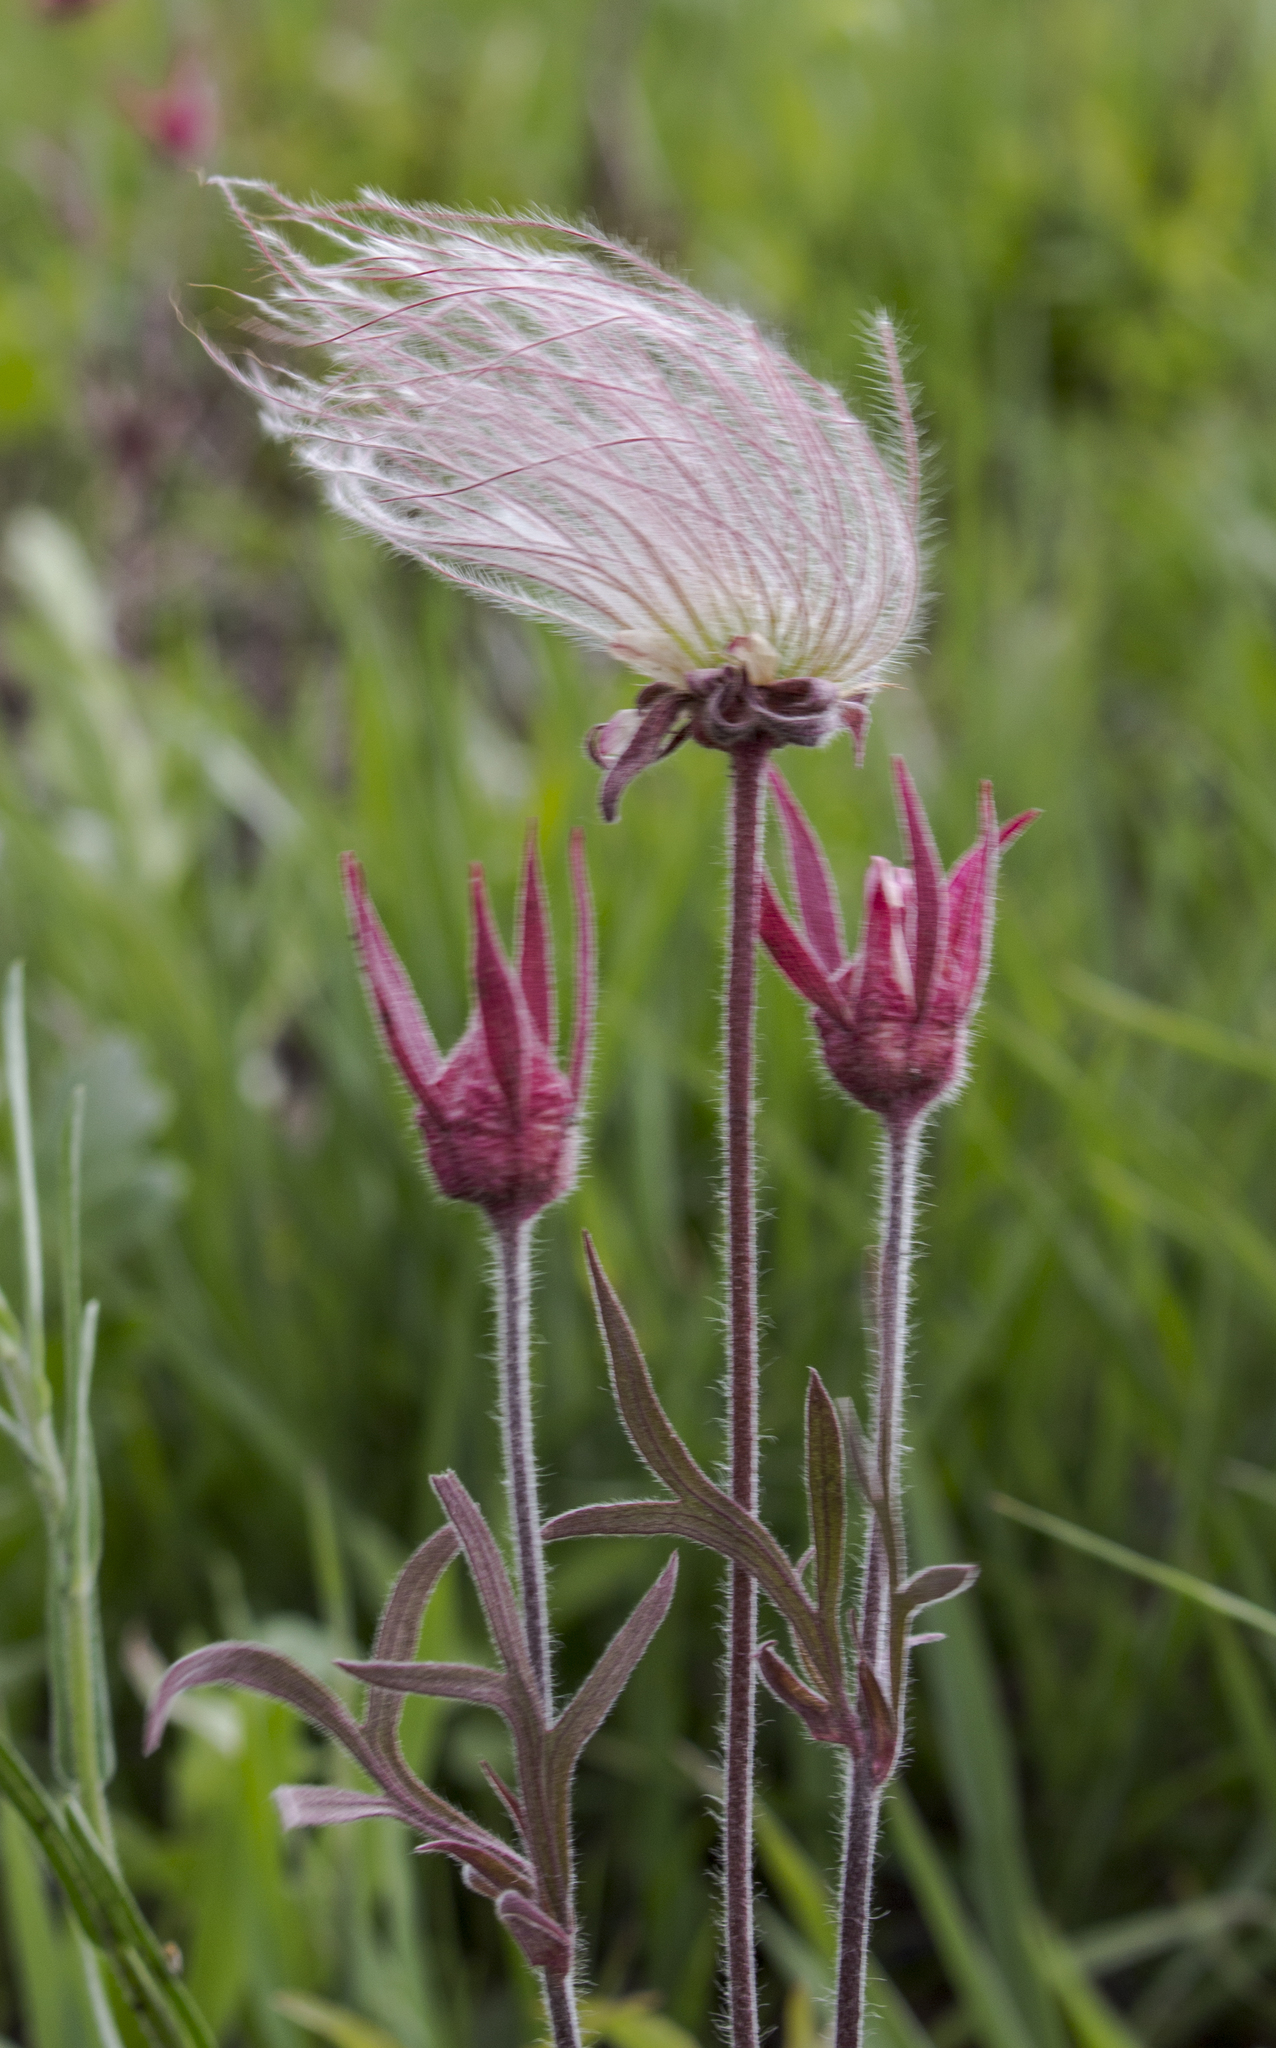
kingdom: Plantae
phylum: Tracheophyta
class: Magnoliopsida
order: Rosales
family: Rosaceae
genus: Geum
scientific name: Geum triflorum
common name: Old man's whiskers
